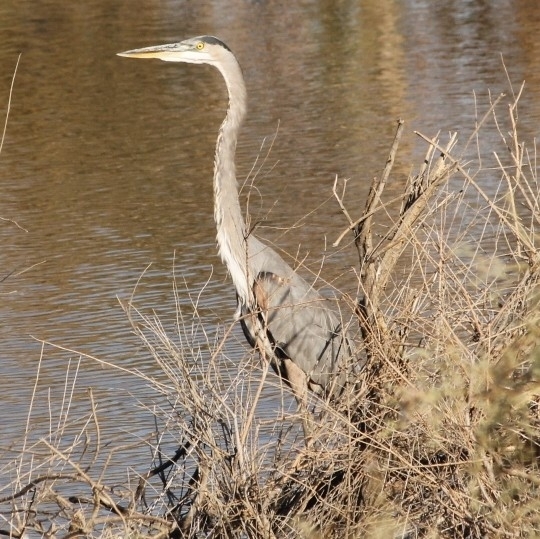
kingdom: Animalia
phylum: Chordata
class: Aves
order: Pelecaniformes
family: Ardeidae
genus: Ardea
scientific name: Ardea herodias
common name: Great blue heron
